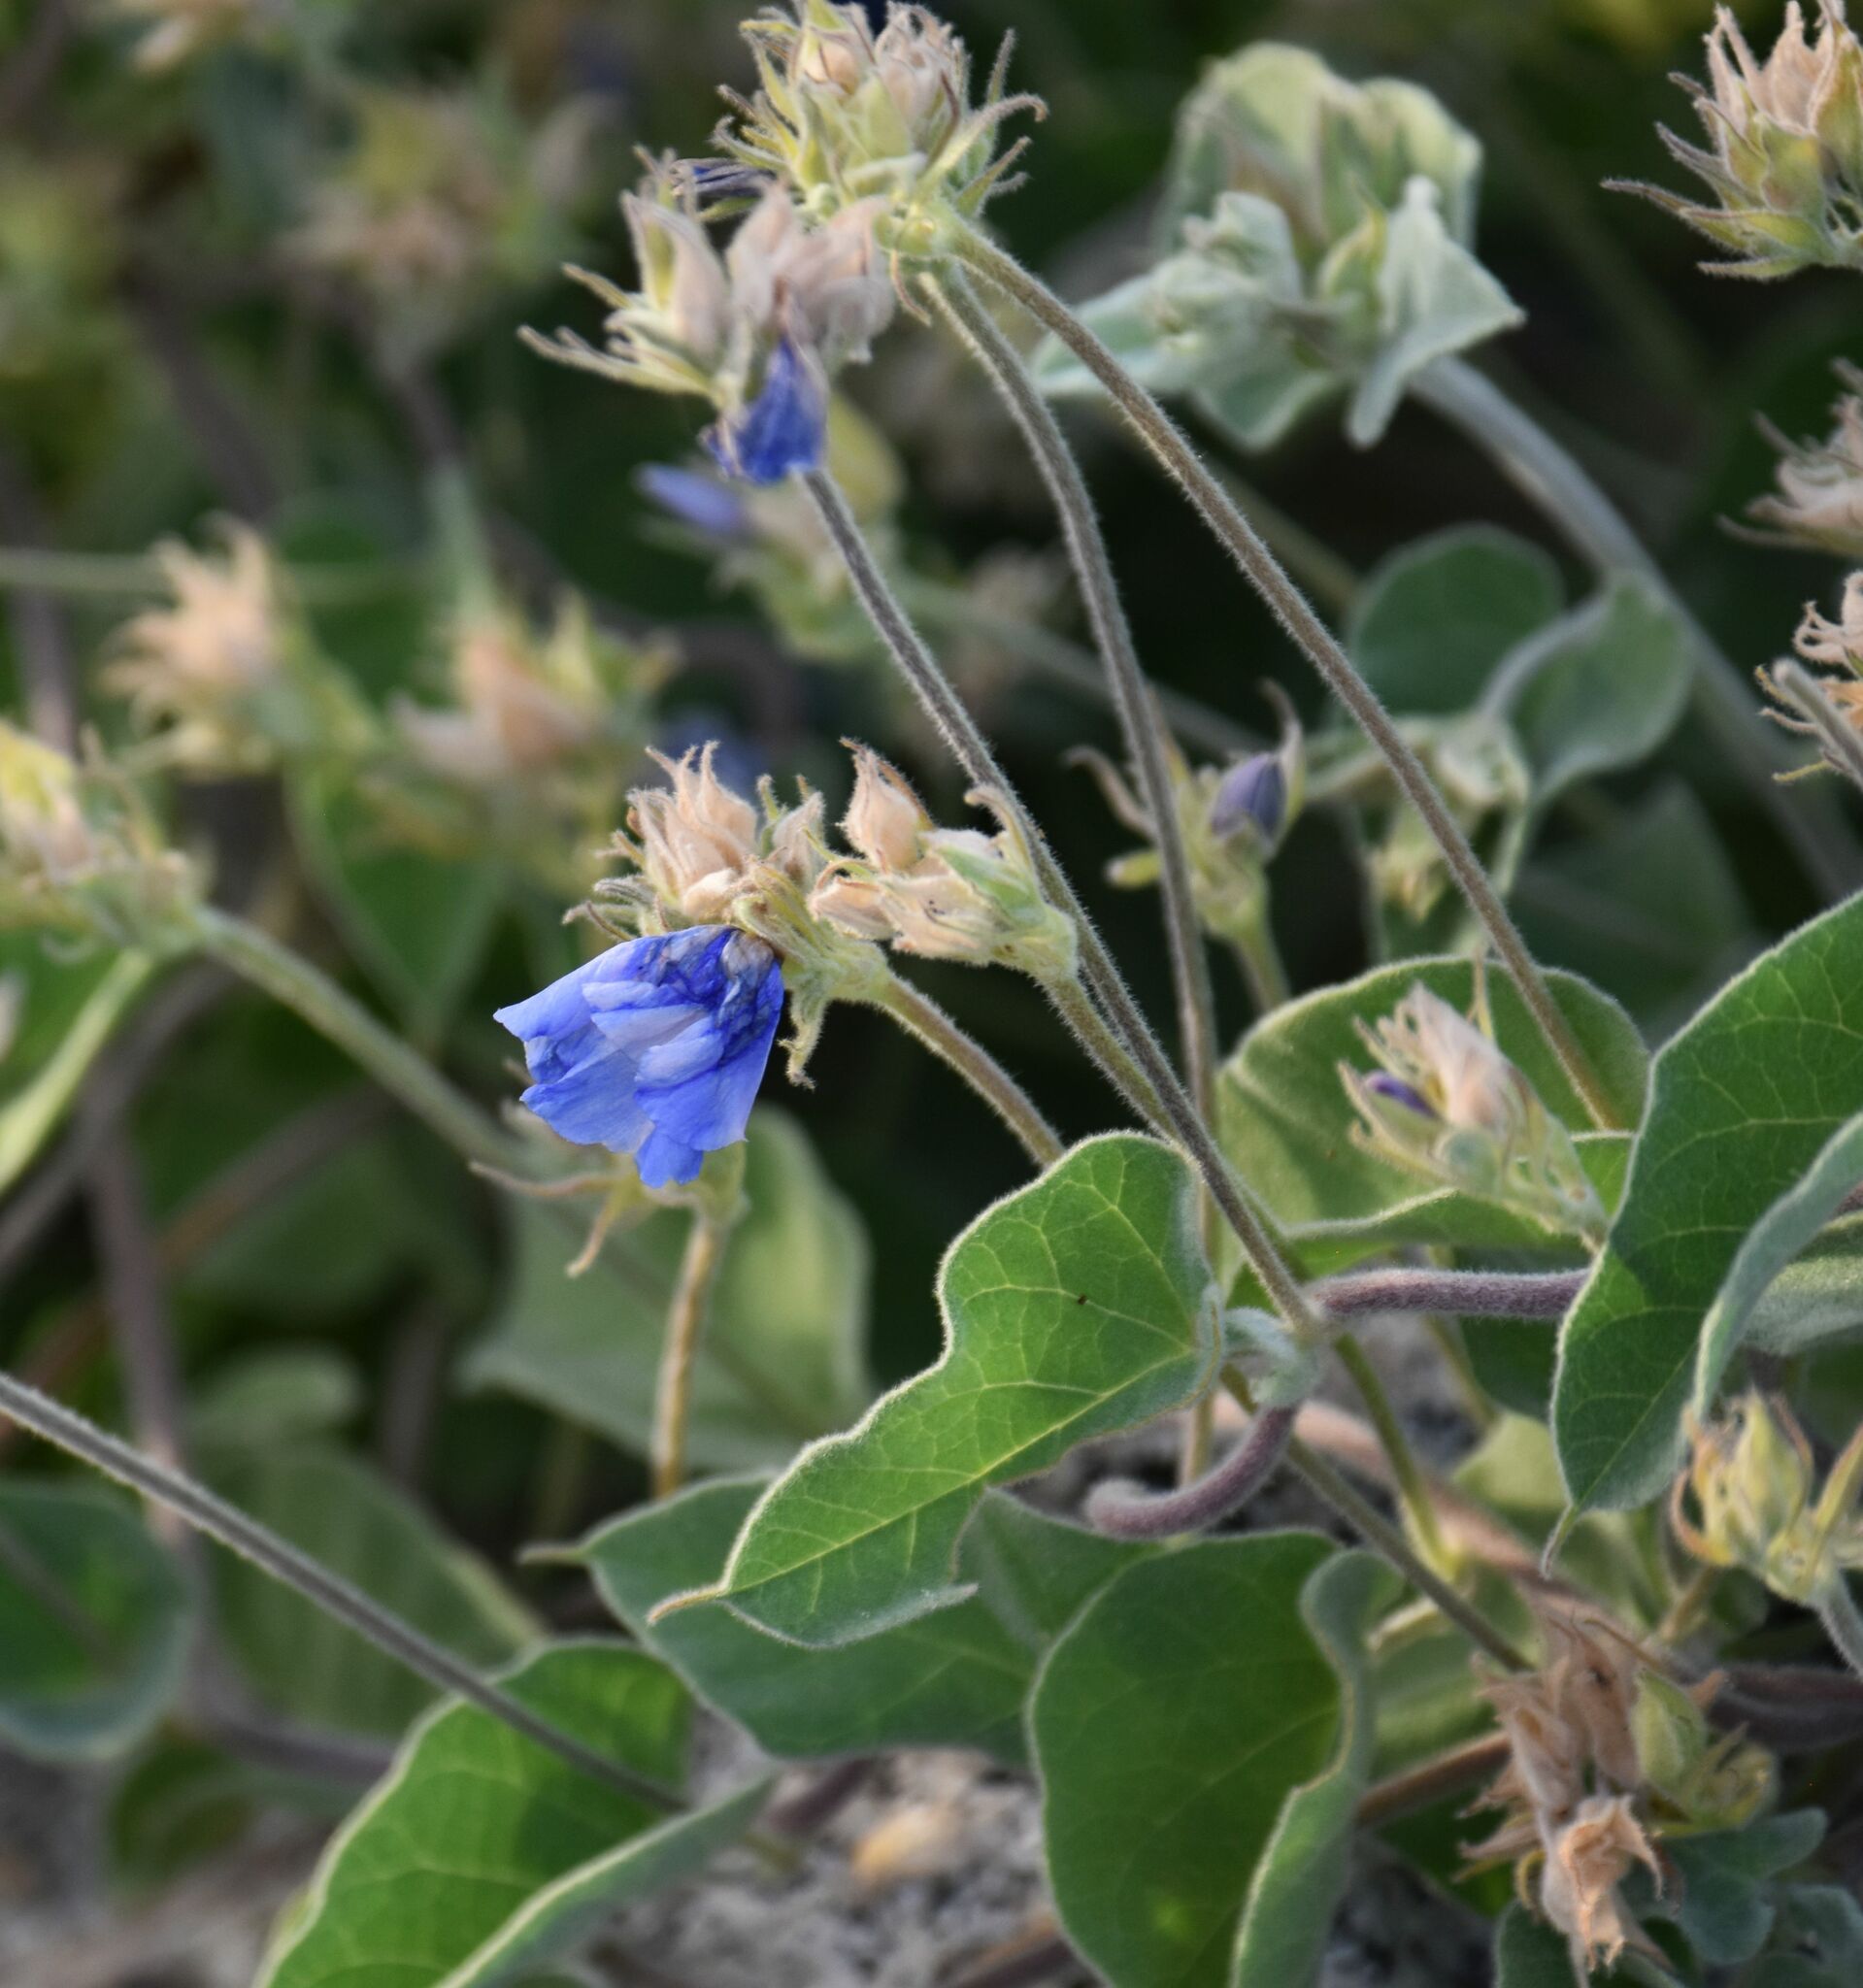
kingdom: Plantae
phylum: Tracheophyta
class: Magnoliopsida
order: Solanales
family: Convolvulaceae
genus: Jacquemontia
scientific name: Jacquemontia abutiloides
